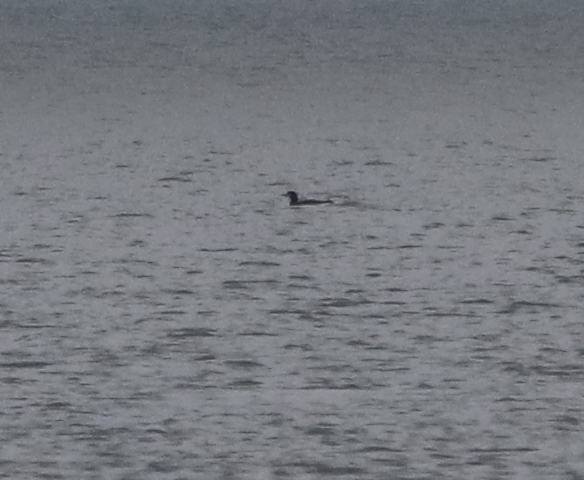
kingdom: Animalia
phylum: Chordata
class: Aves
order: Gaviiformes
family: Gaviidae
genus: Gavia
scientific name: Gavia immer
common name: Common loon
